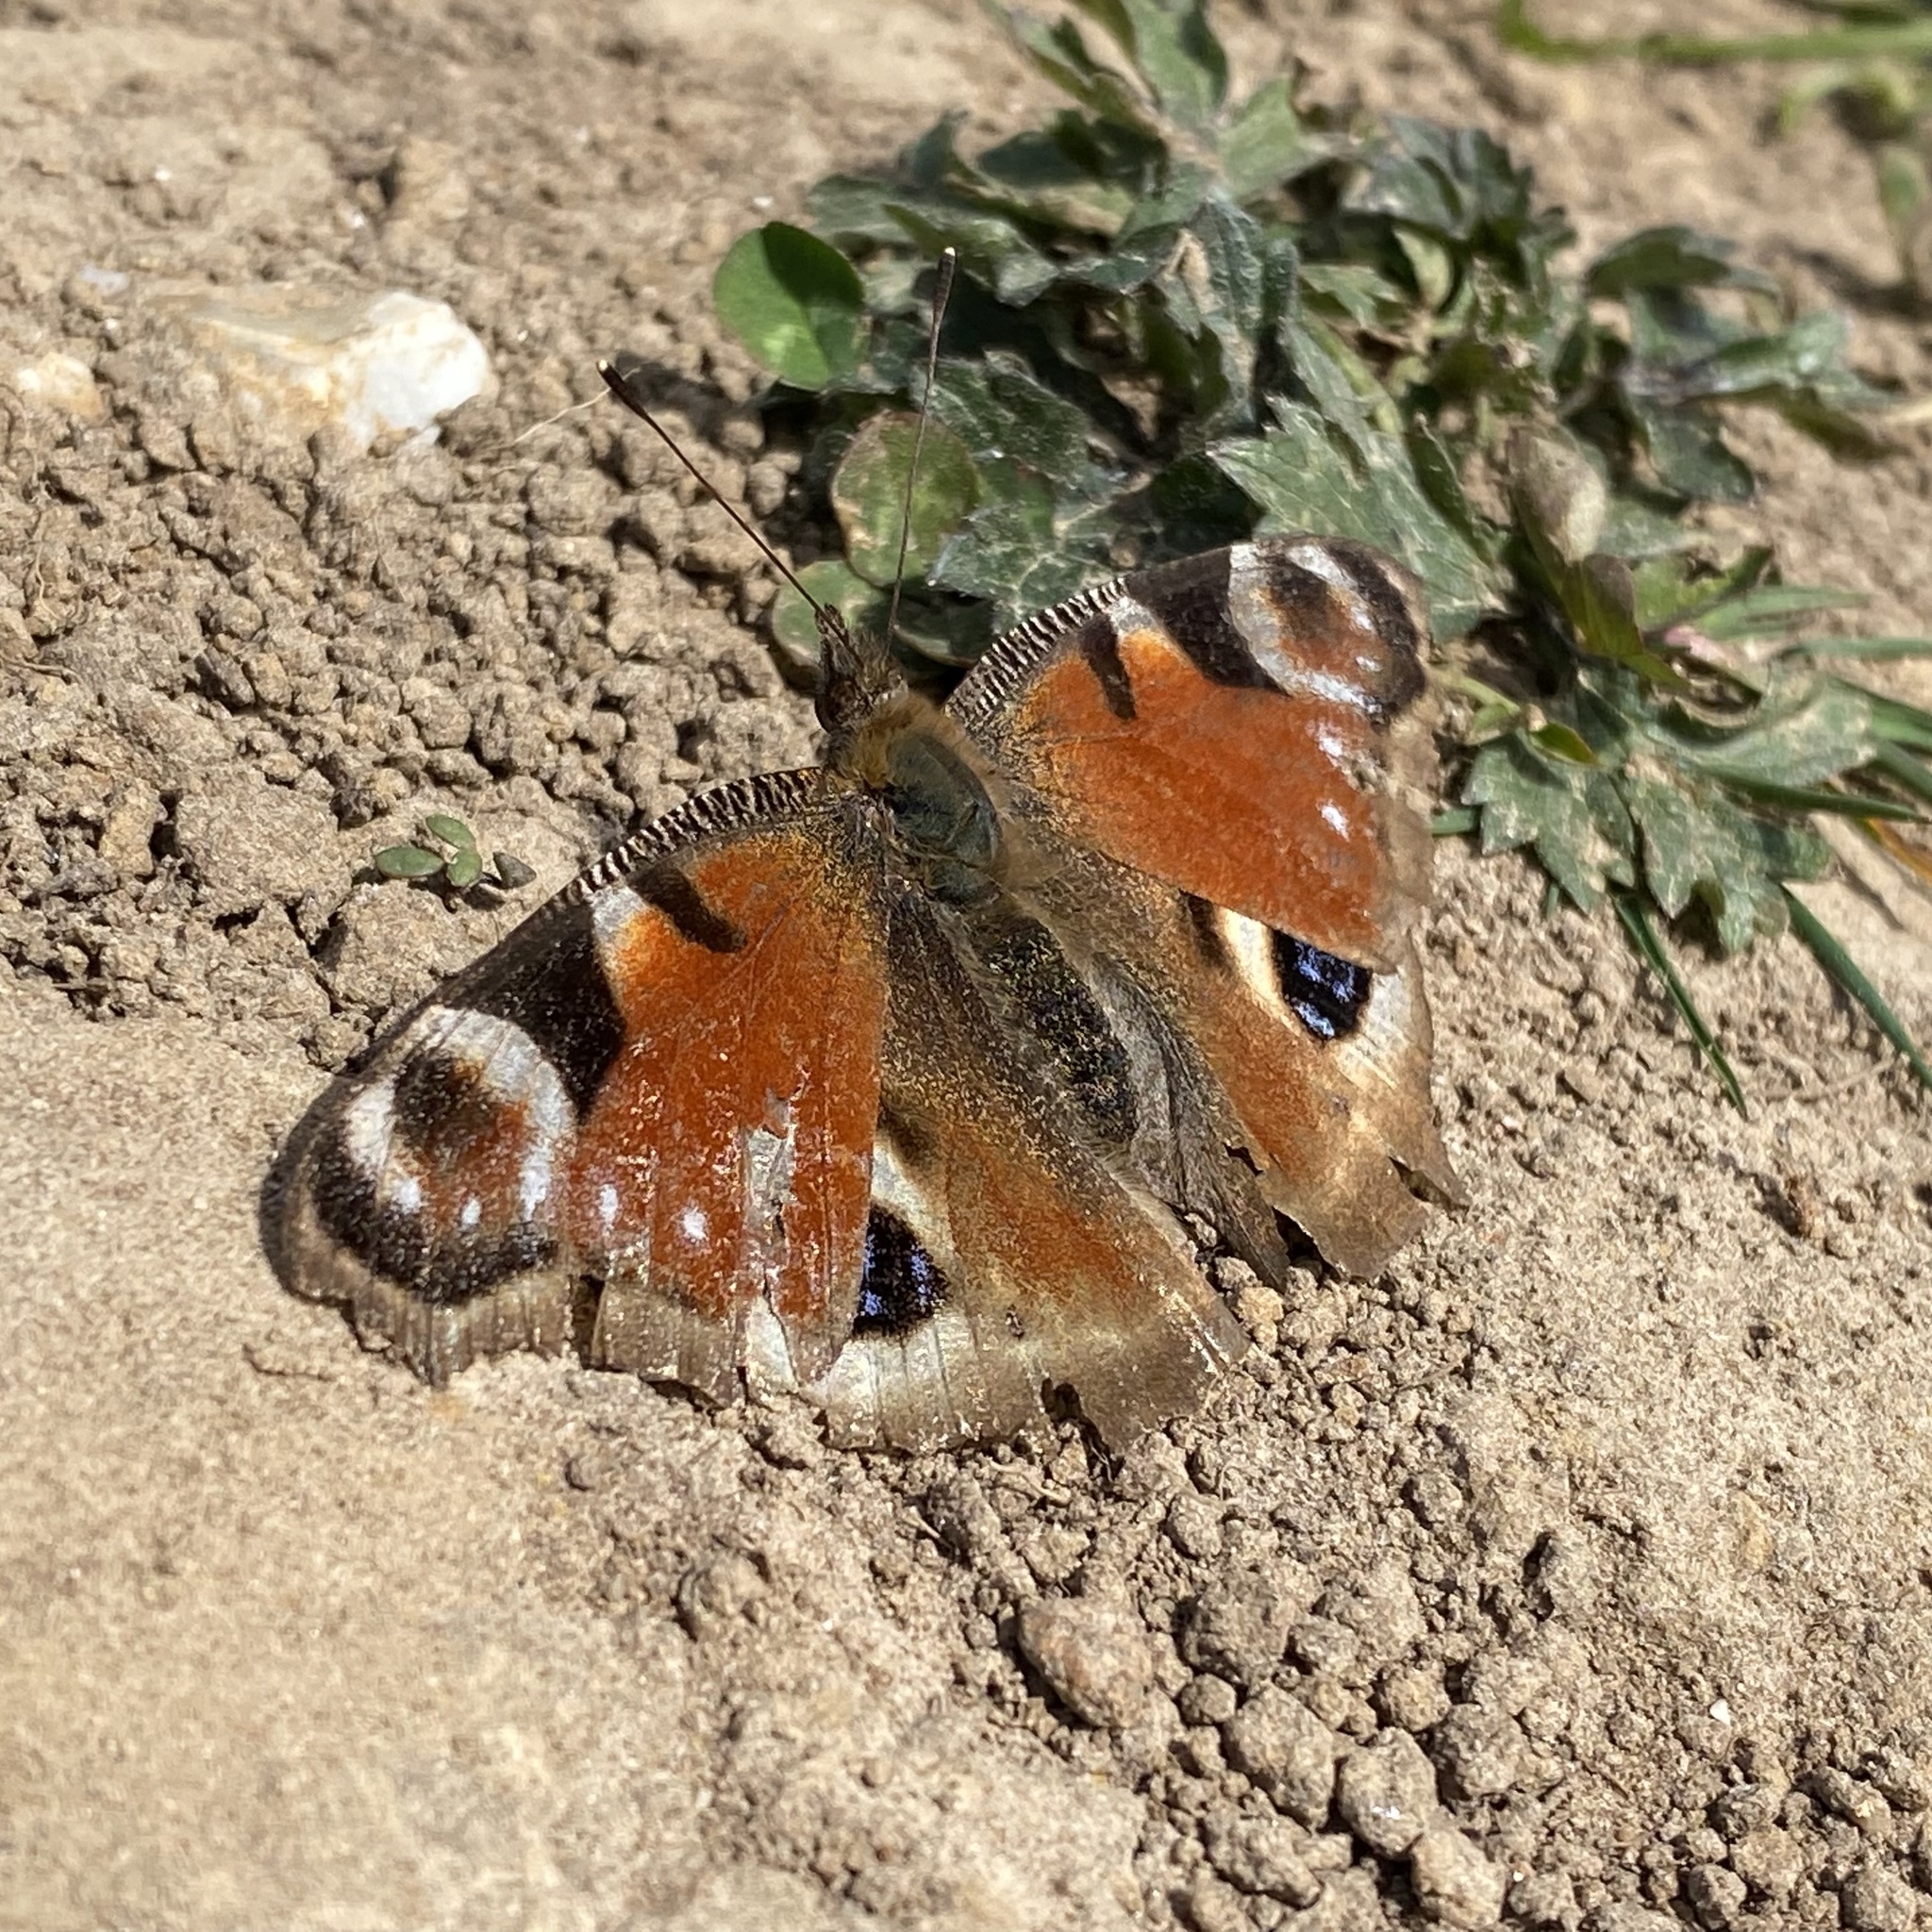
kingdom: Animalia
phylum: Arthropoda
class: Insecta
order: Lepidoptera
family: Nymphalidae
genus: Aglais
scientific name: Aglais io
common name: Peacock
